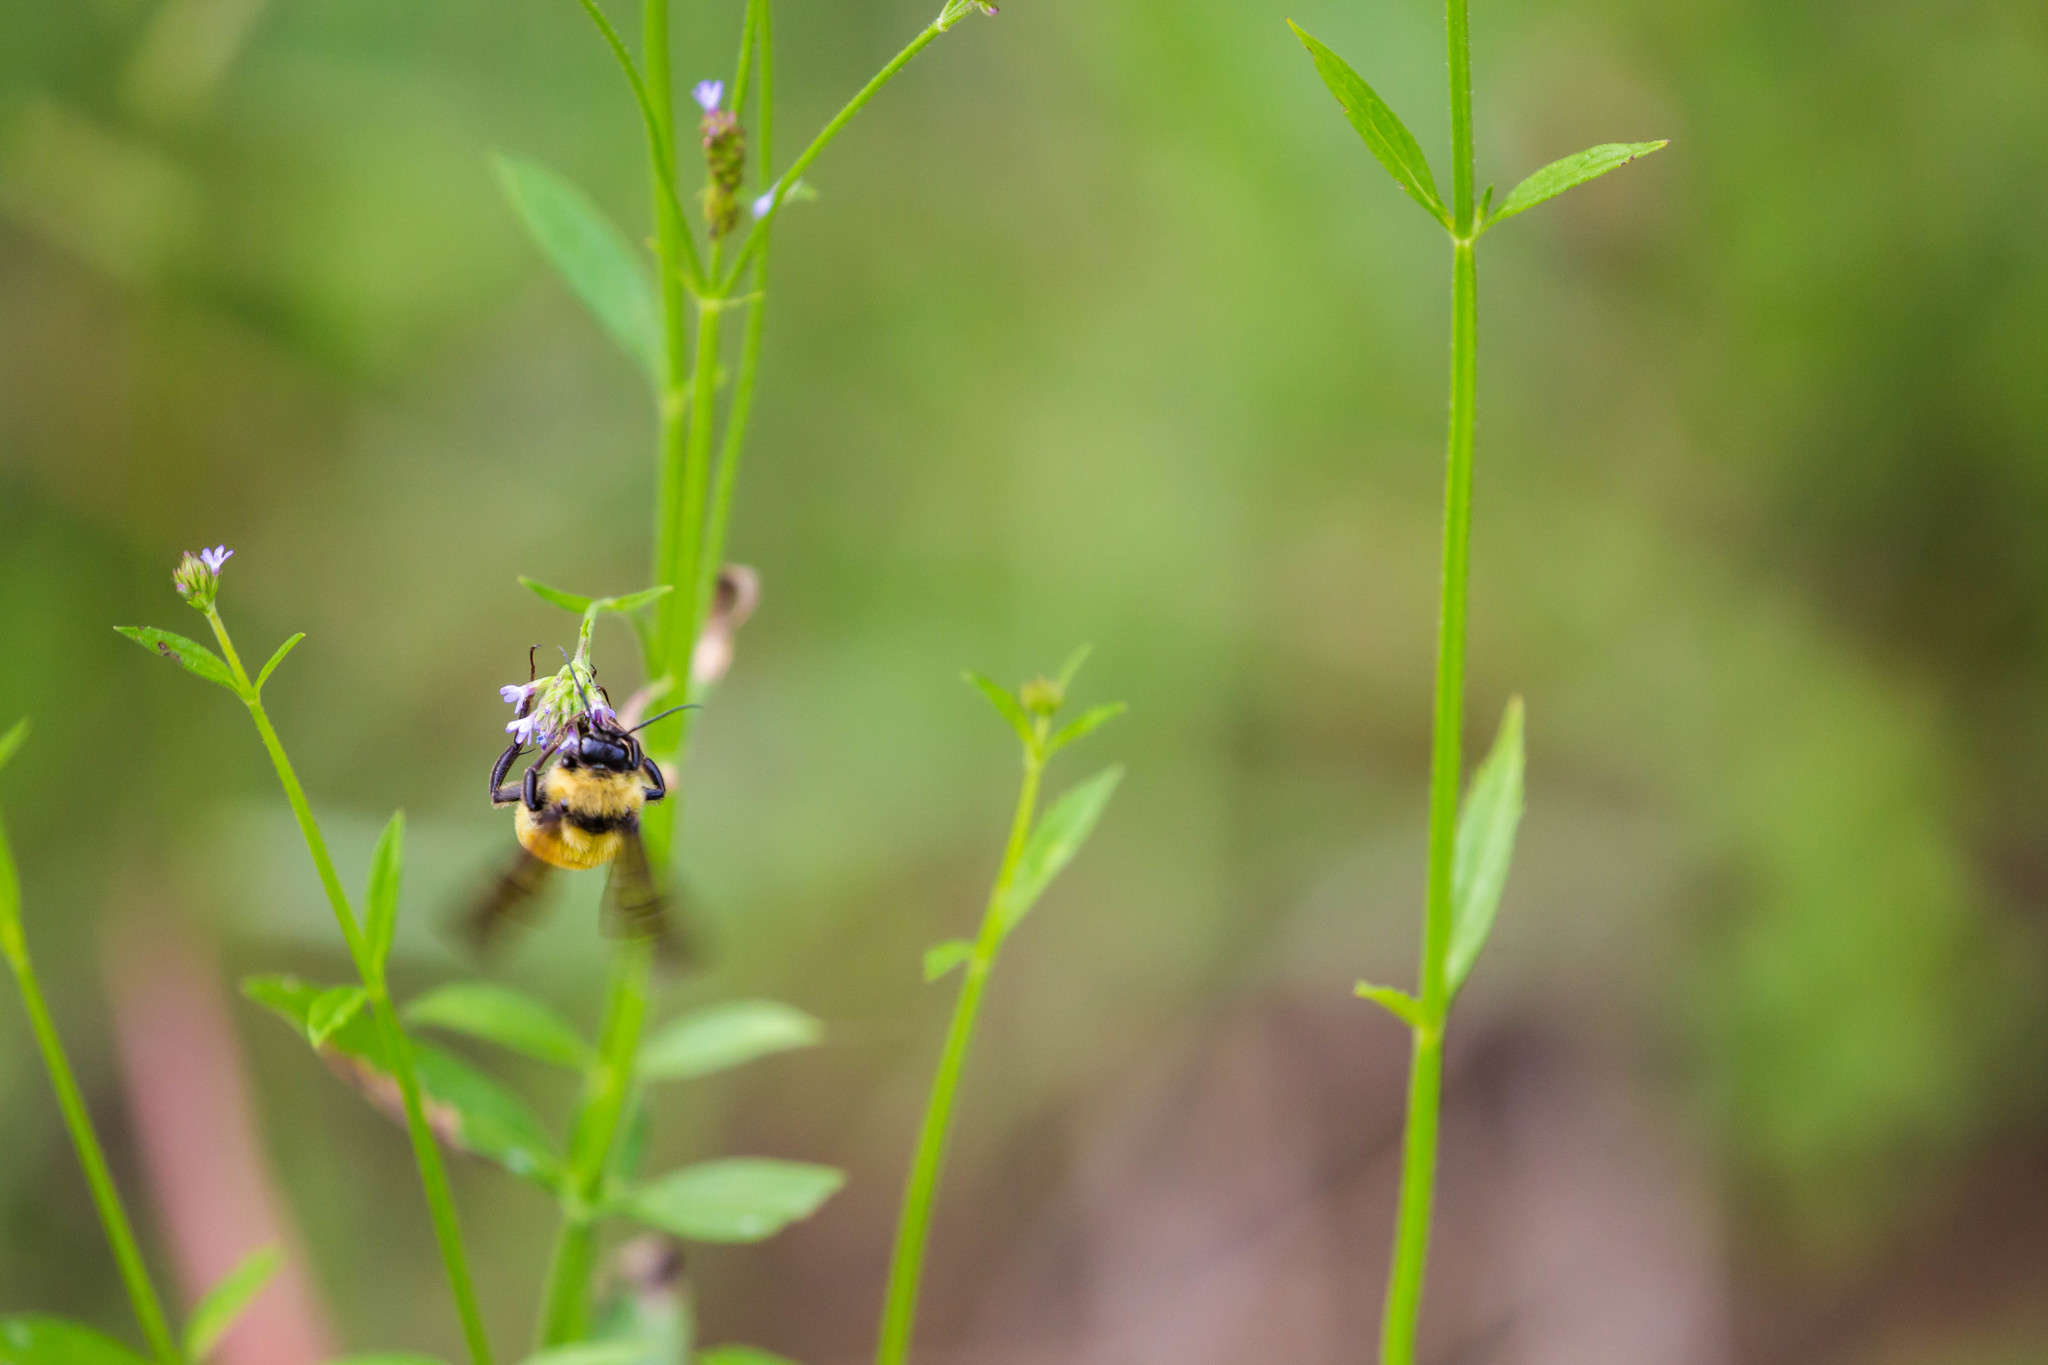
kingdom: Animalia
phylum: Arthropoda
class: Insecta
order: Hymenoptera
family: Apidae
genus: Bombus
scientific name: Bombus pensylvanicus
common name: Bumble bee
